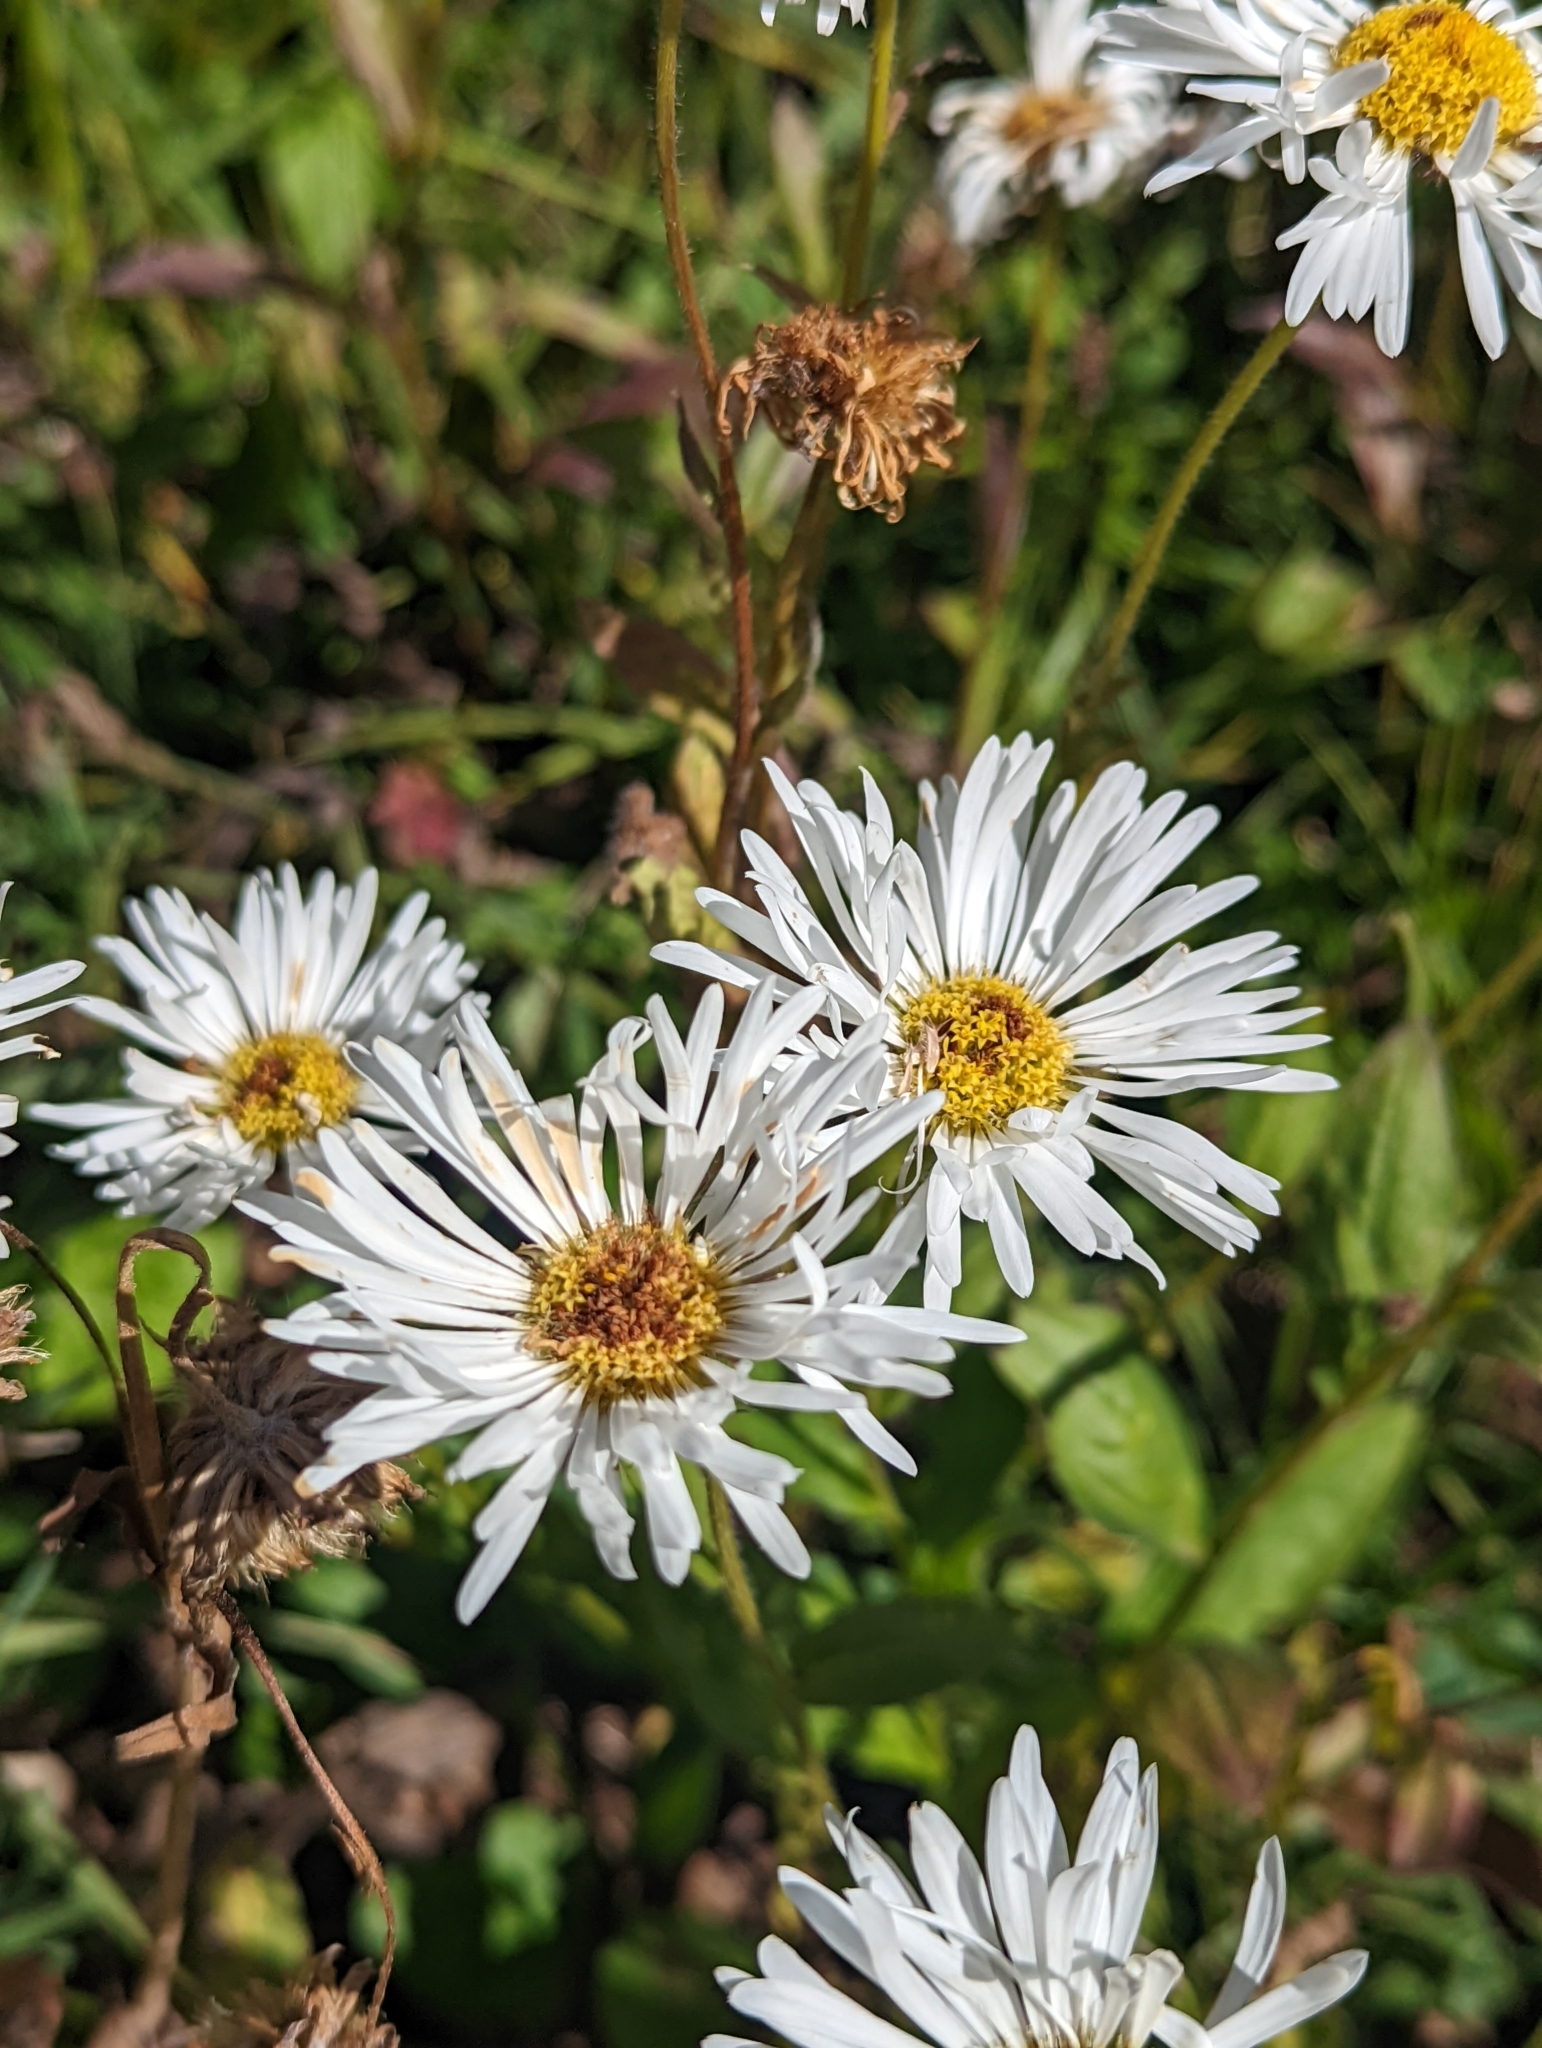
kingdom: Plantae
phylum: Tracheophyta
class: Magnoliopsida
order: Asterales
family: Asteraceae
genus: Erigeron
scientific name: Erigeron coulteri
